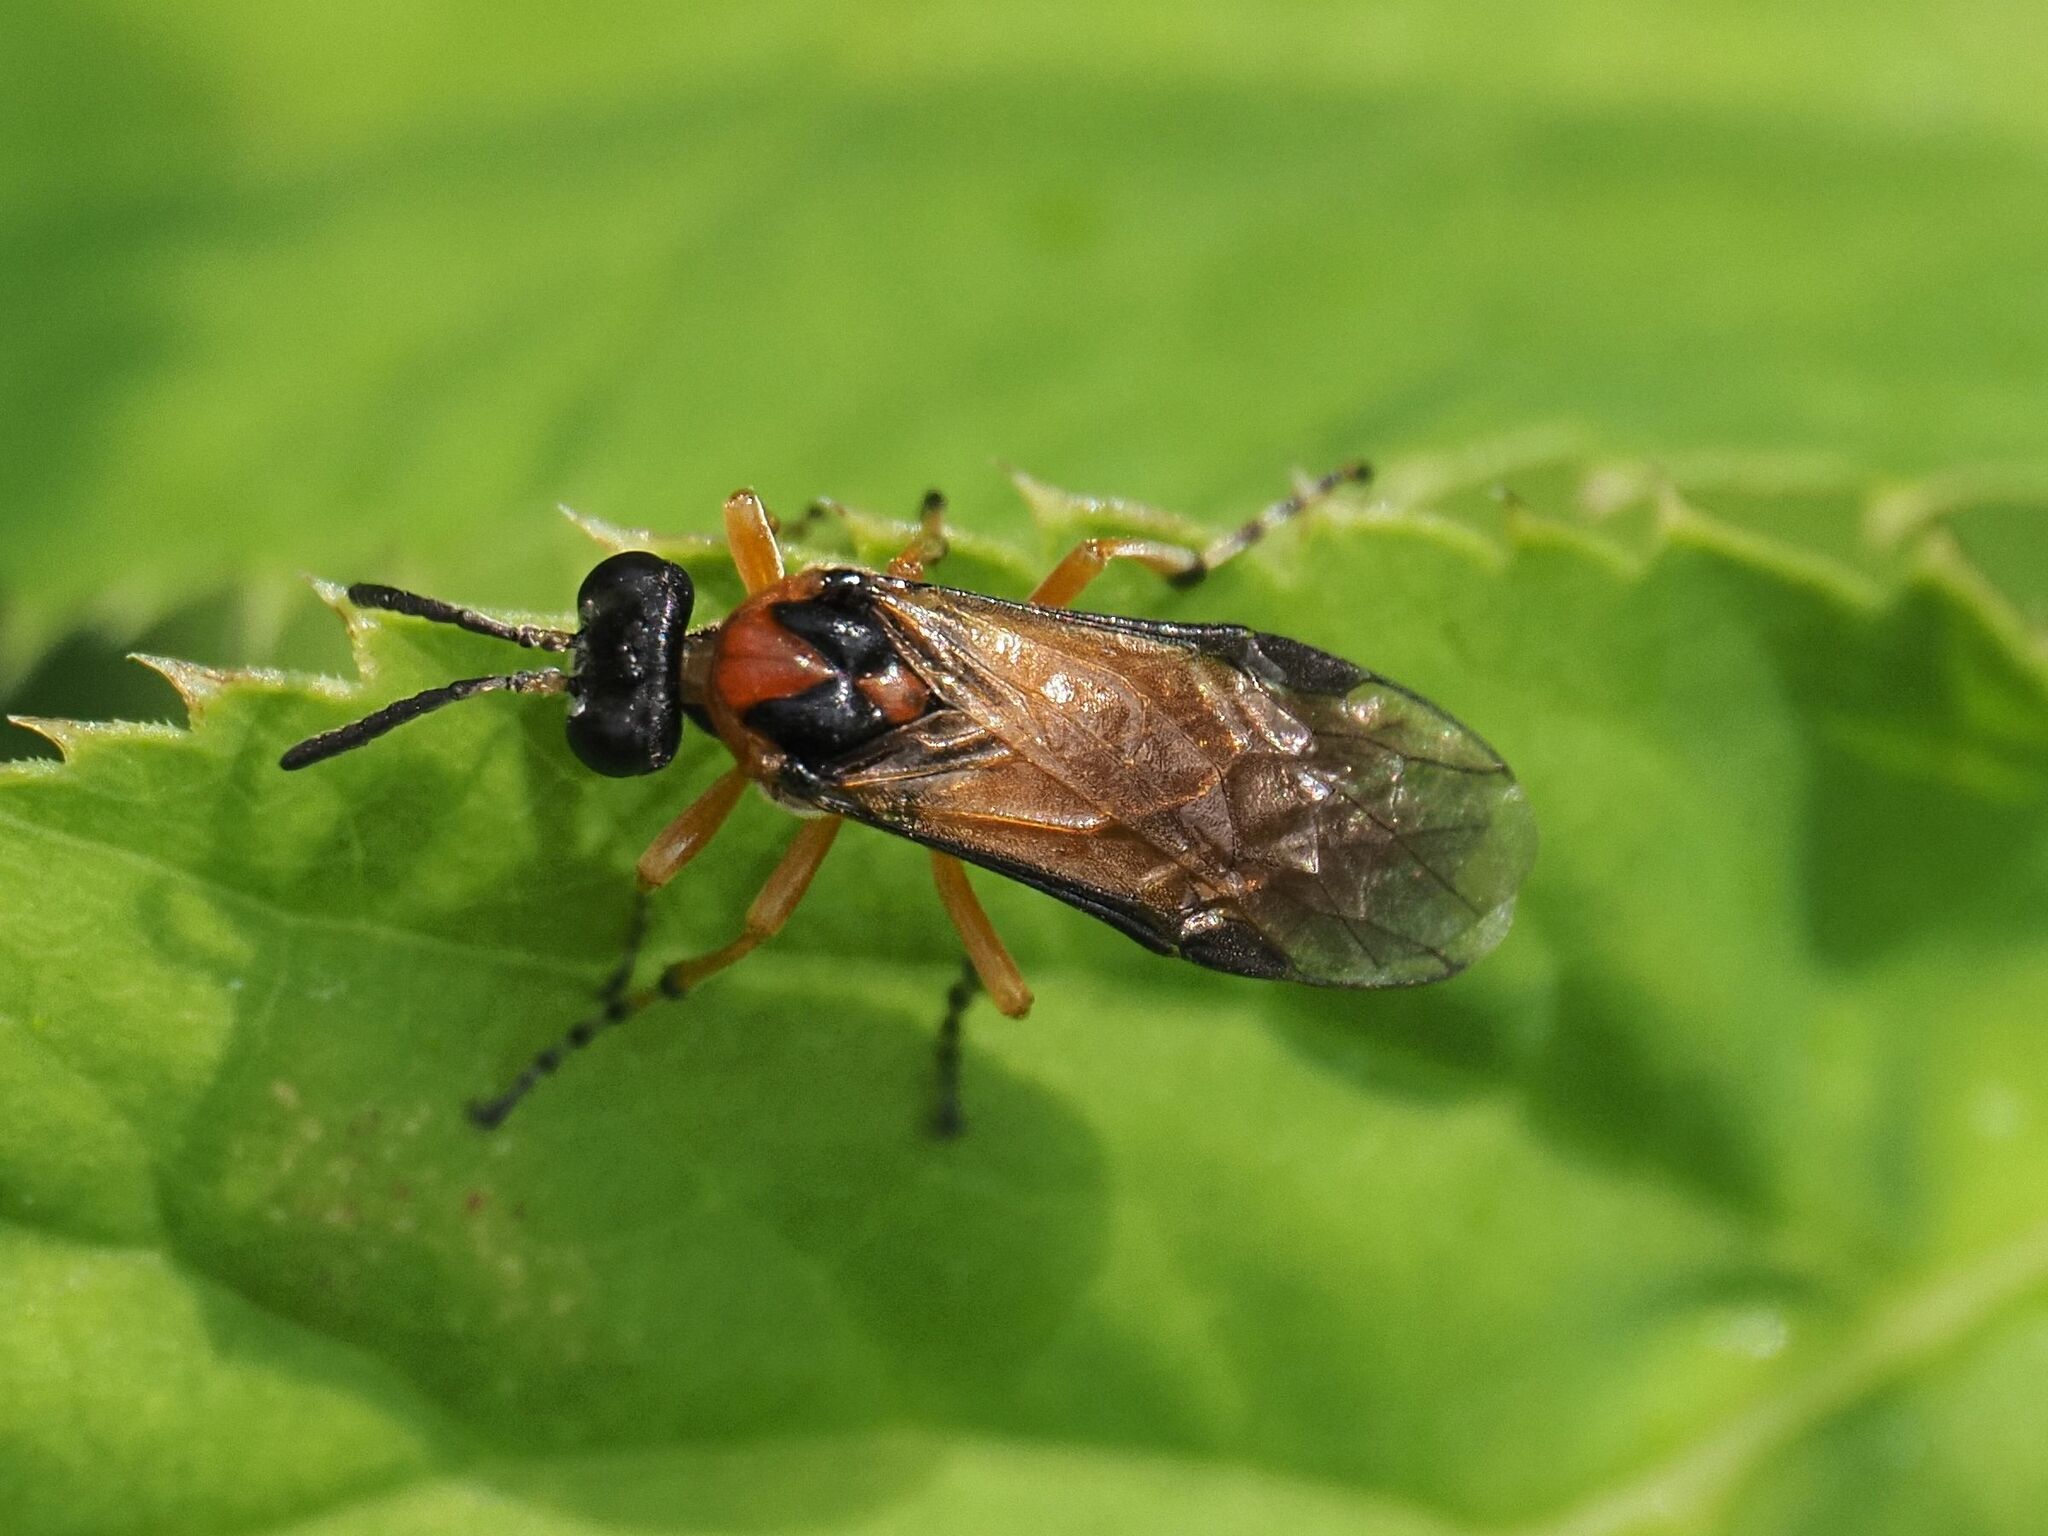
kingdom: Animalia
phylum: Arthropoda
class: Insecta
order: Hymenoptera
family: Tenthredinidae
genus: Athalia
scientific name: Athalia rosae
